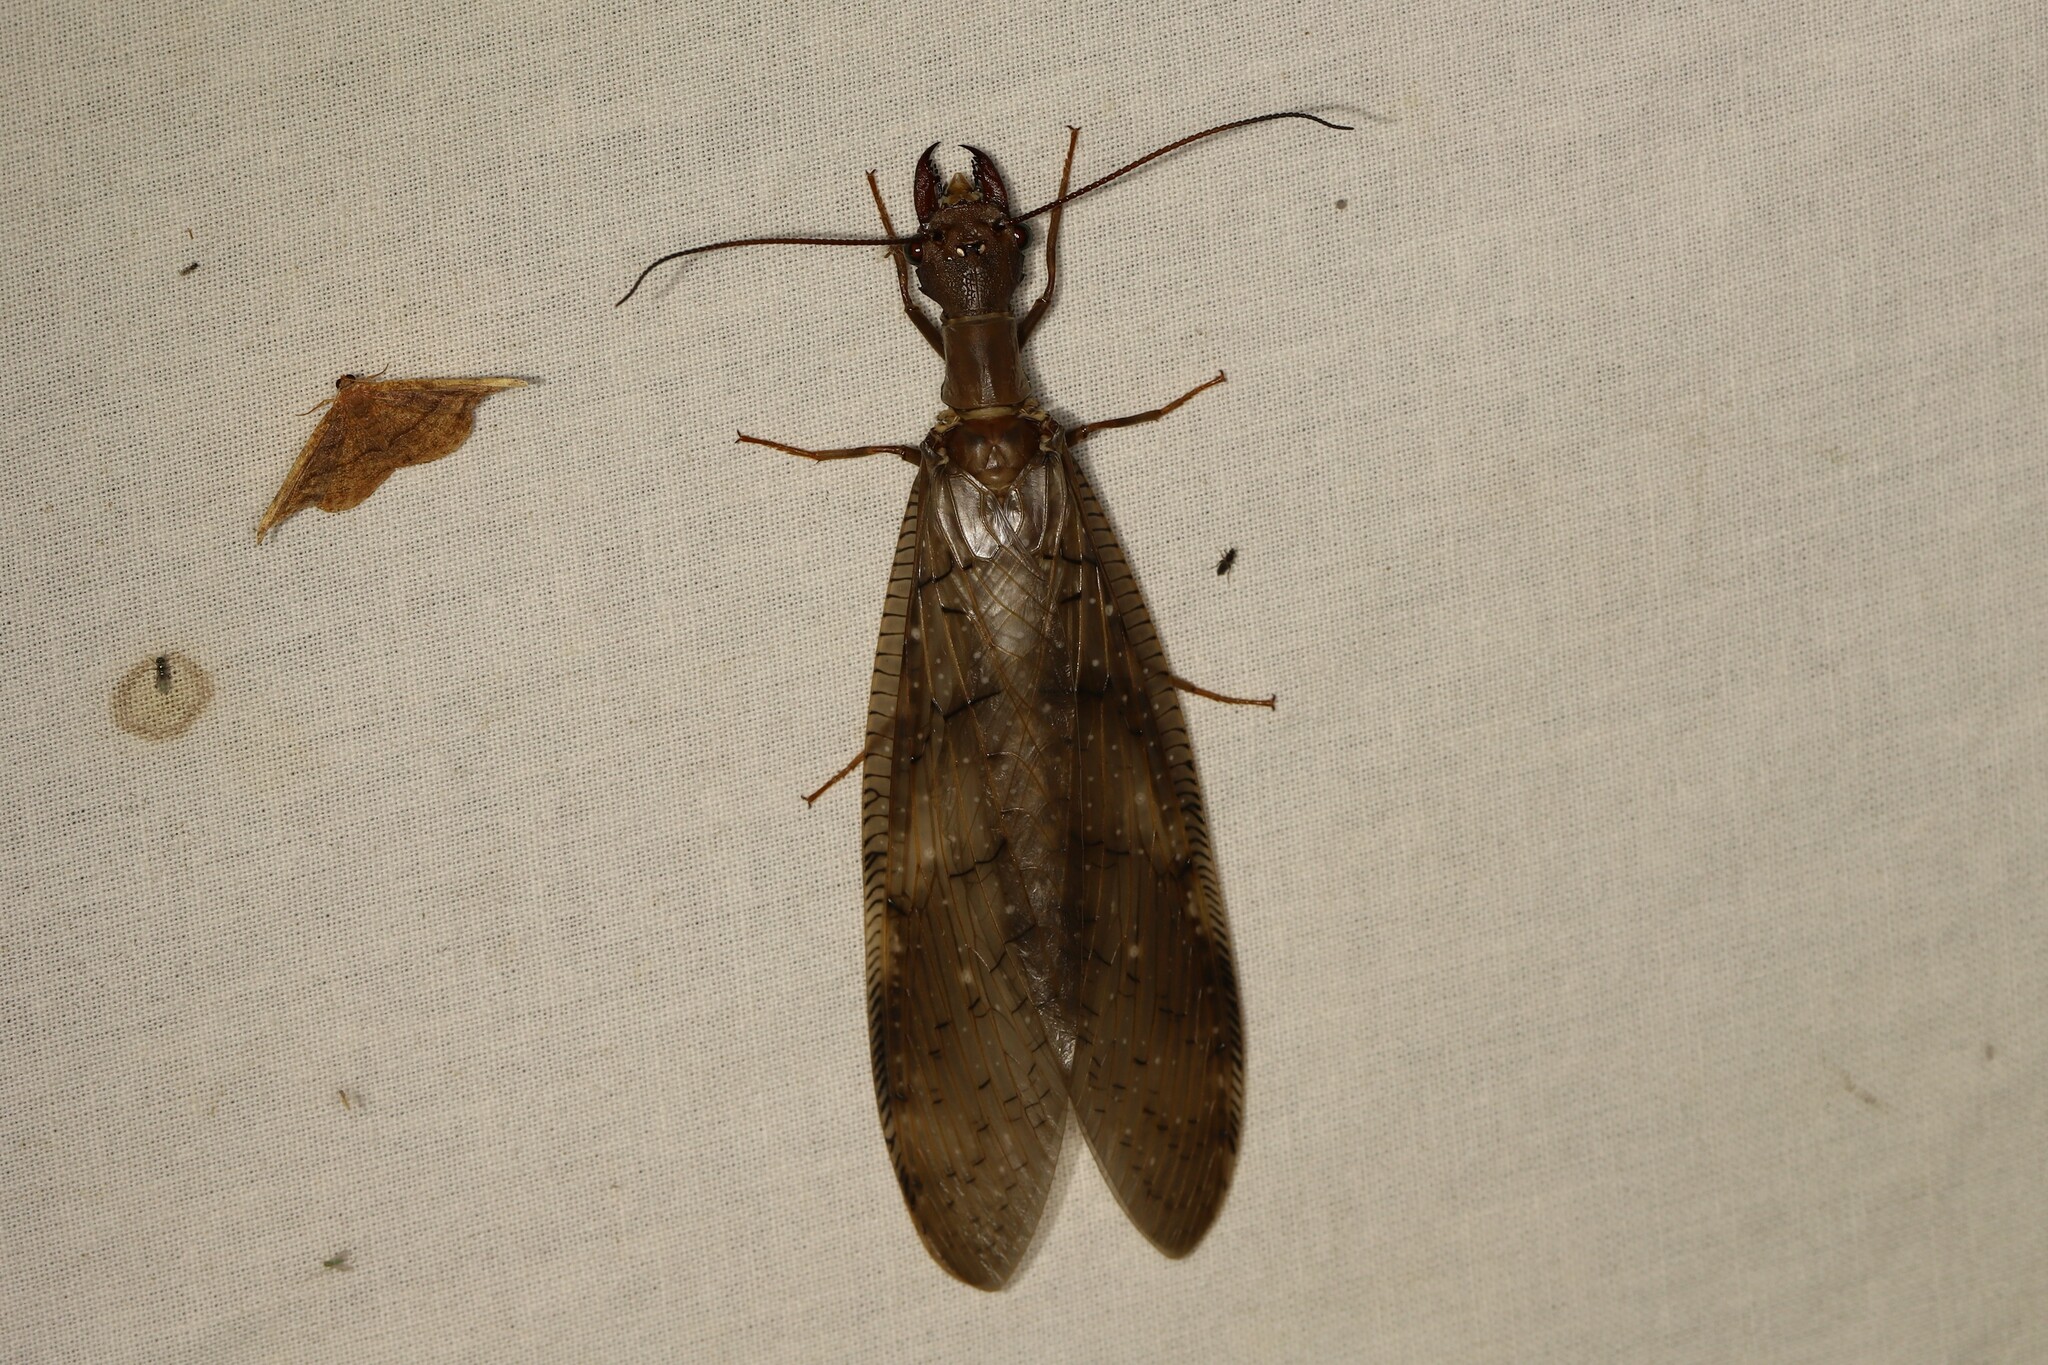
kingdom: Animalia
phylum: Arthropoda
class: Insecta
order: Megaloptera
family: Corydalidae
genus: Corydalus
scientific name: Corydalus armatus
